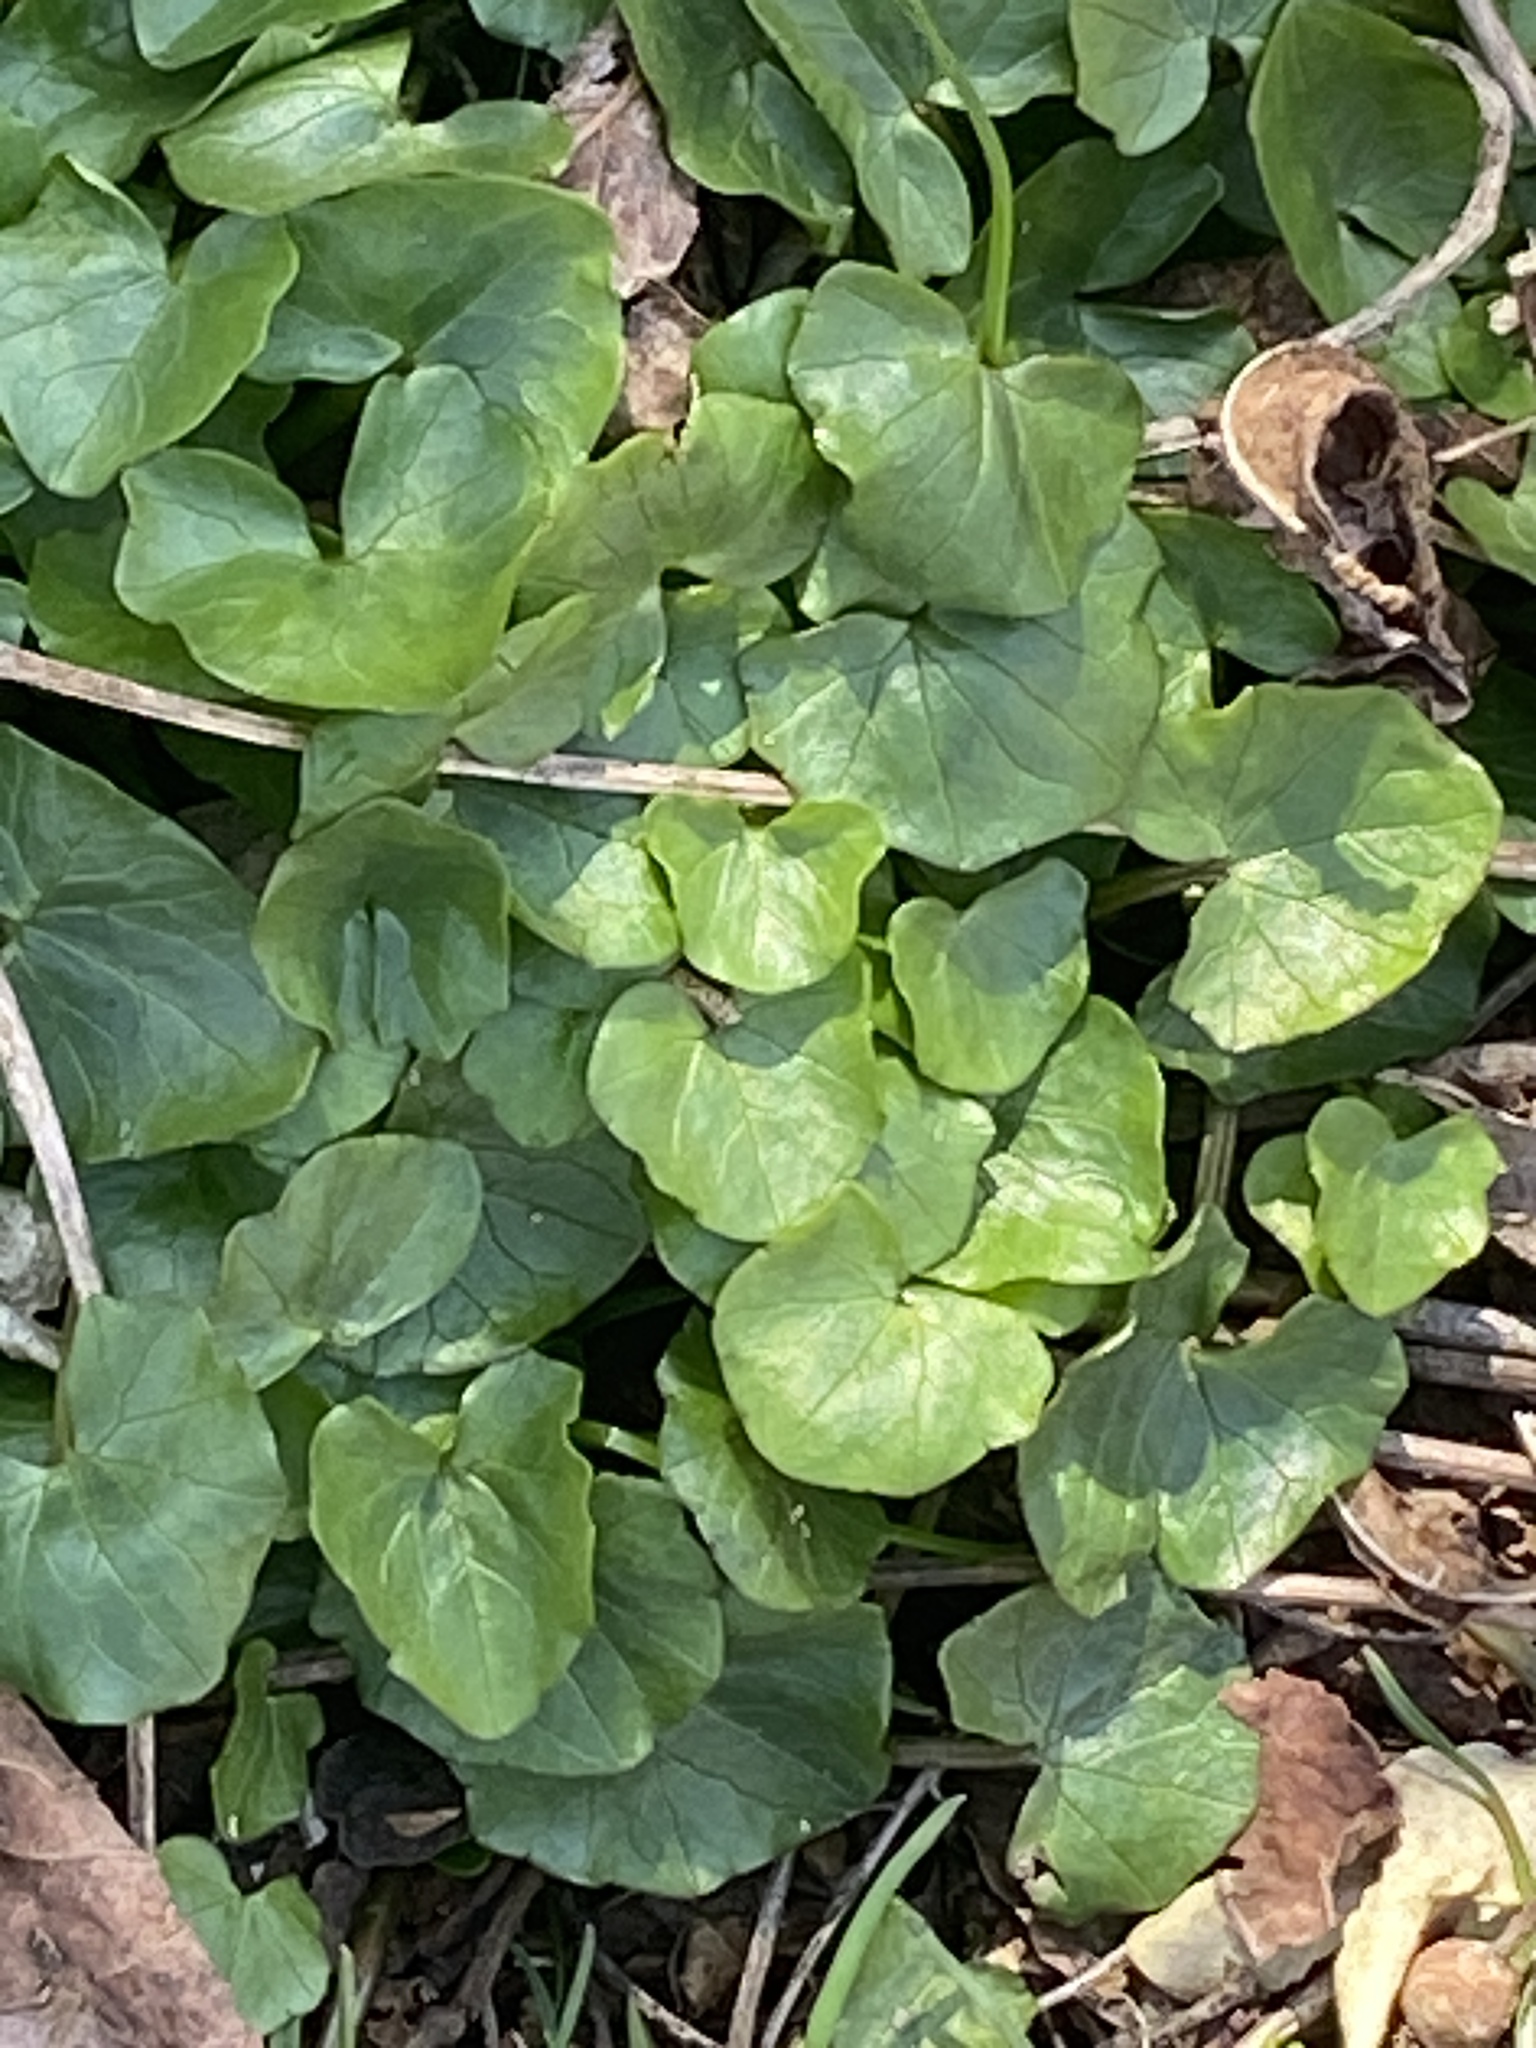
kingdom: Plantae
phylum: Tracheophyta
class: Magnoliopsida
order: Ranunculales
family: Ranunculaceae
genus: Ficaria
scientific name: Ficaria verna
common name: Lesser celandine
